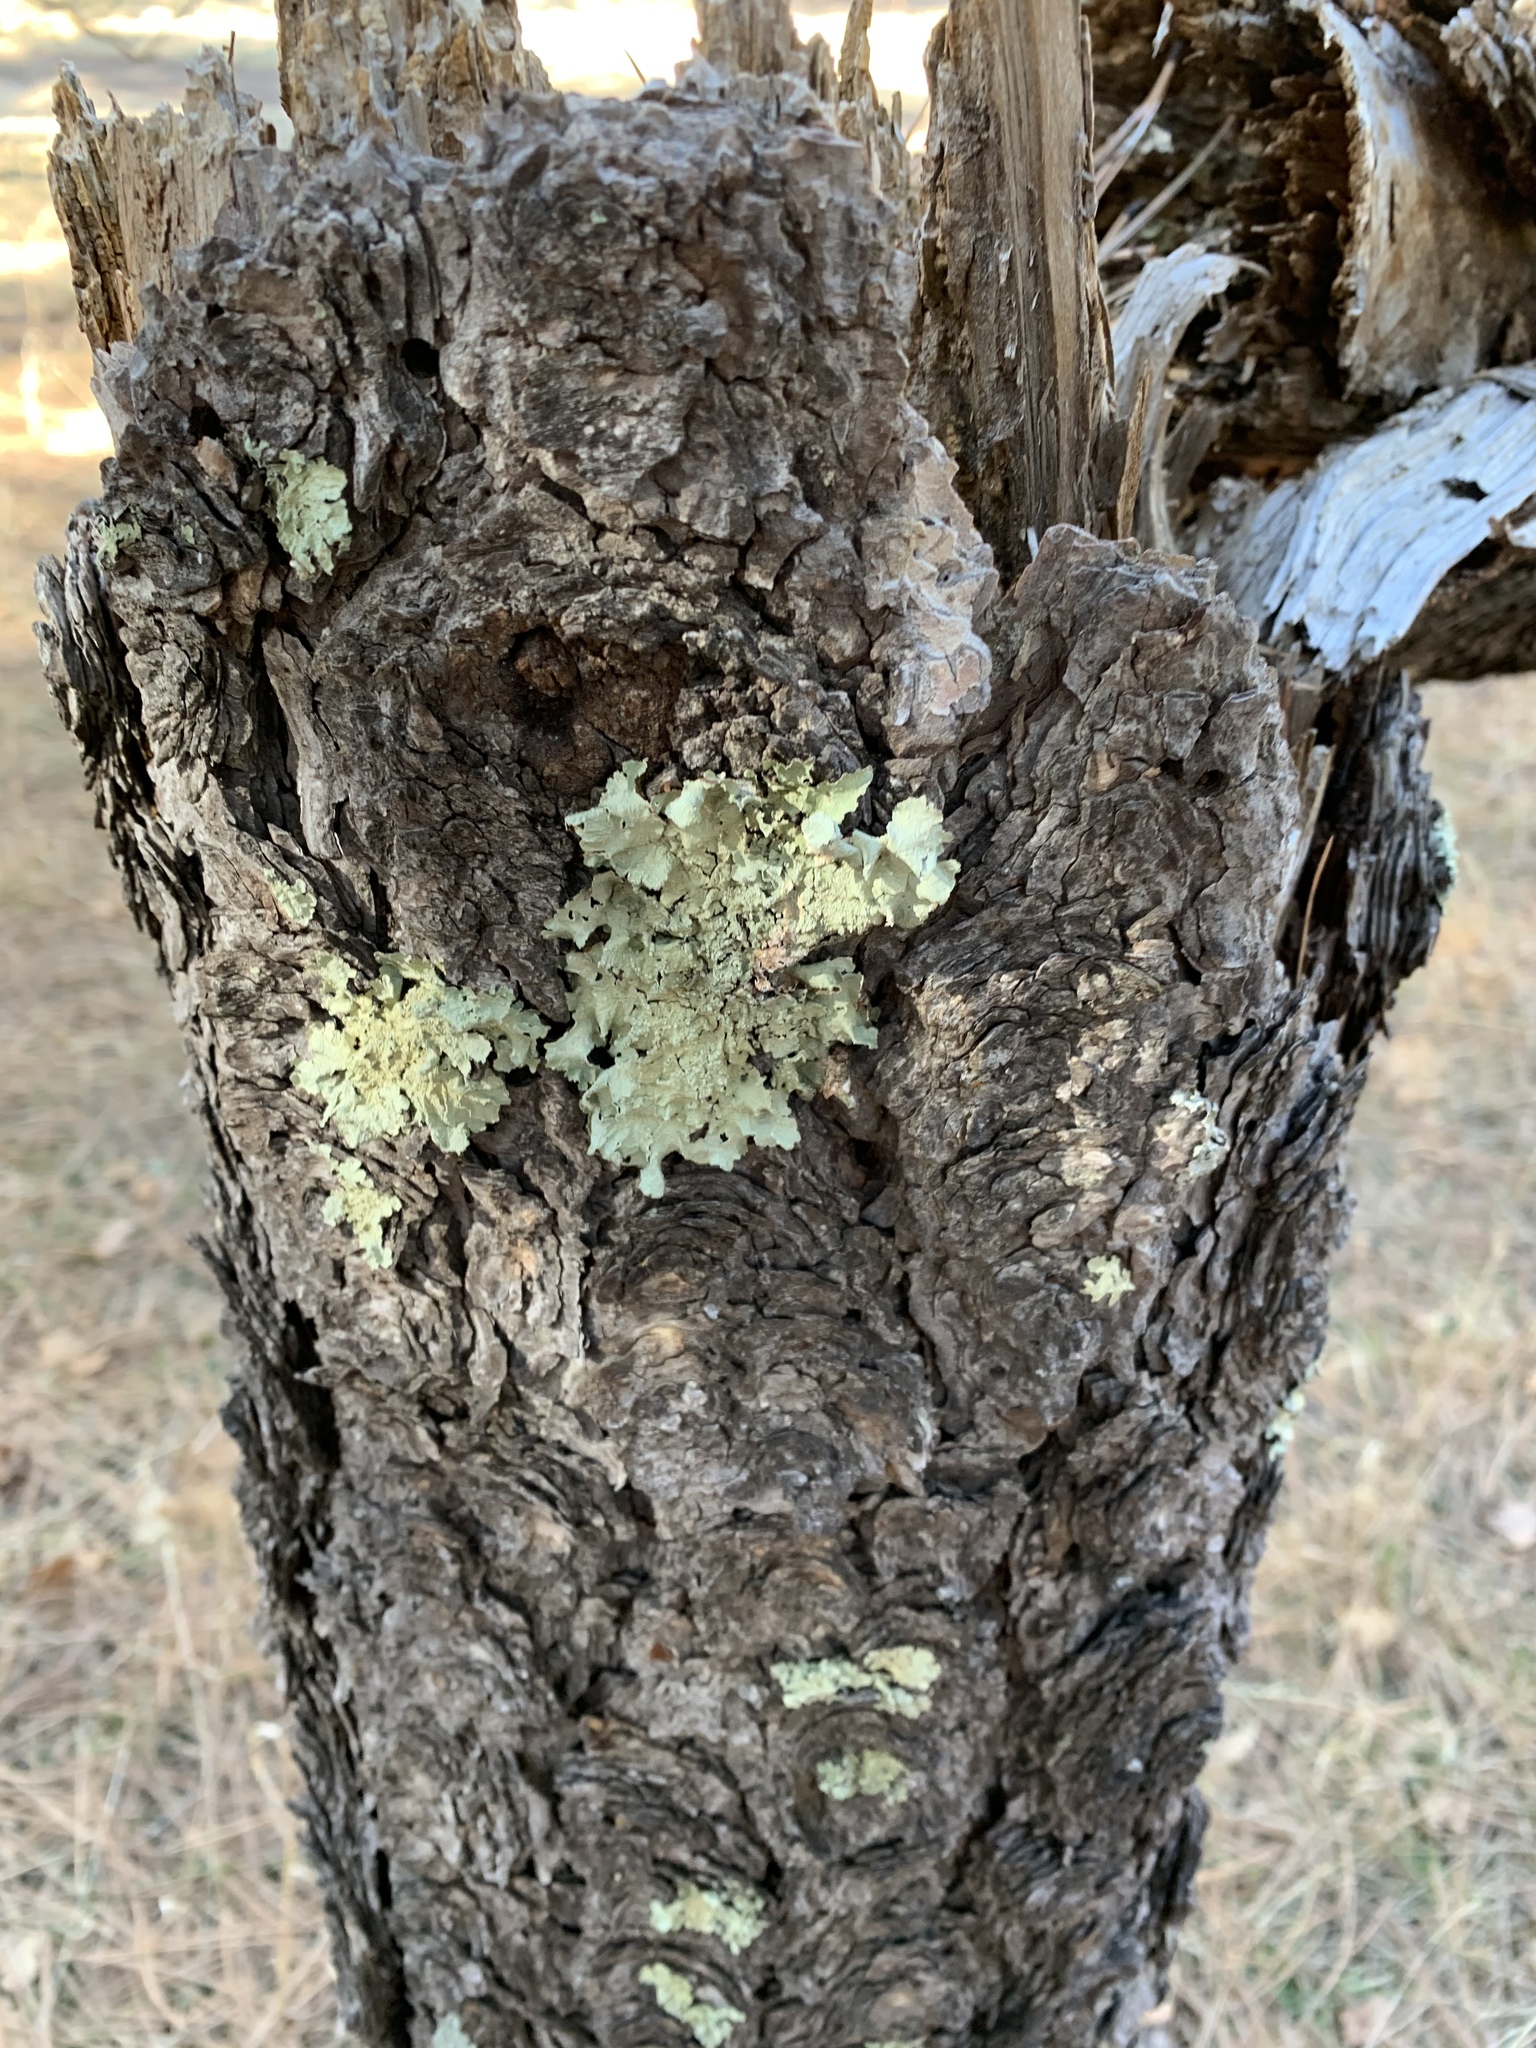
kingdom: Fungi
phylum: Ascomycota
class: Lecanoromycetes
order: Lecanorales
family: Parmeliaceae
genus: Flavoparmelia
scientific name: Flavoparmelia caperata
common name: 40-mile per hour lichen
